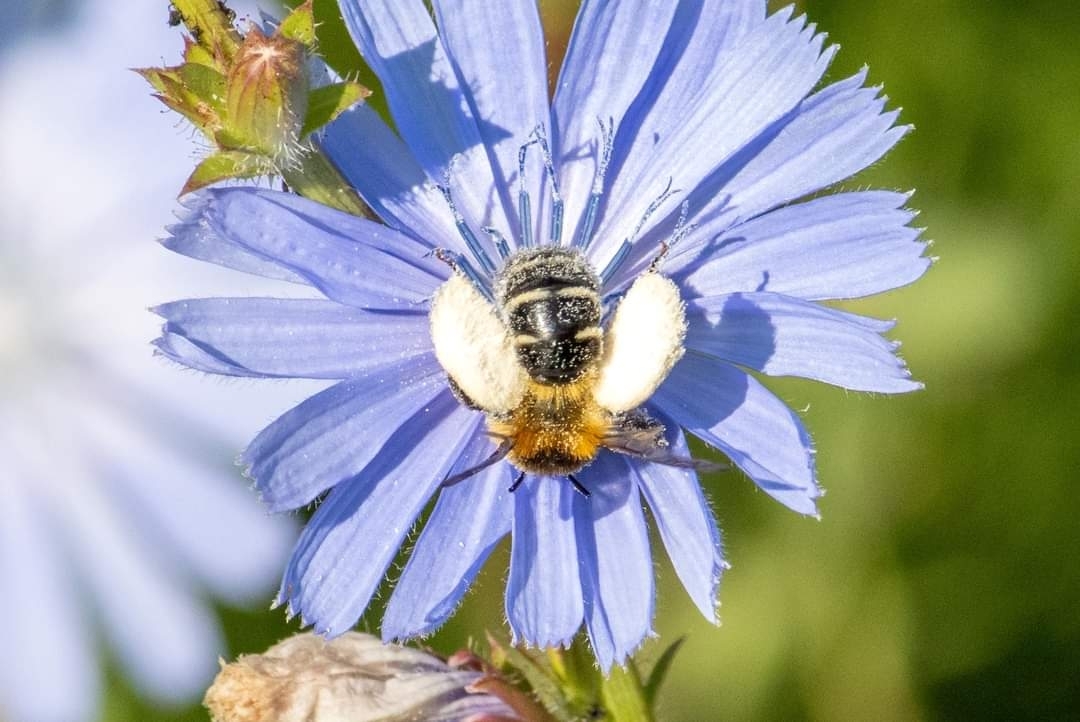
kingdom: Animalia
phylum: Arthropoda
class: Insecta
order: Hymenoptera
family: Melittidae
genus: Dasypoda
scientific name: Dasypoda hirtipes
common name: Pantaloon bee
